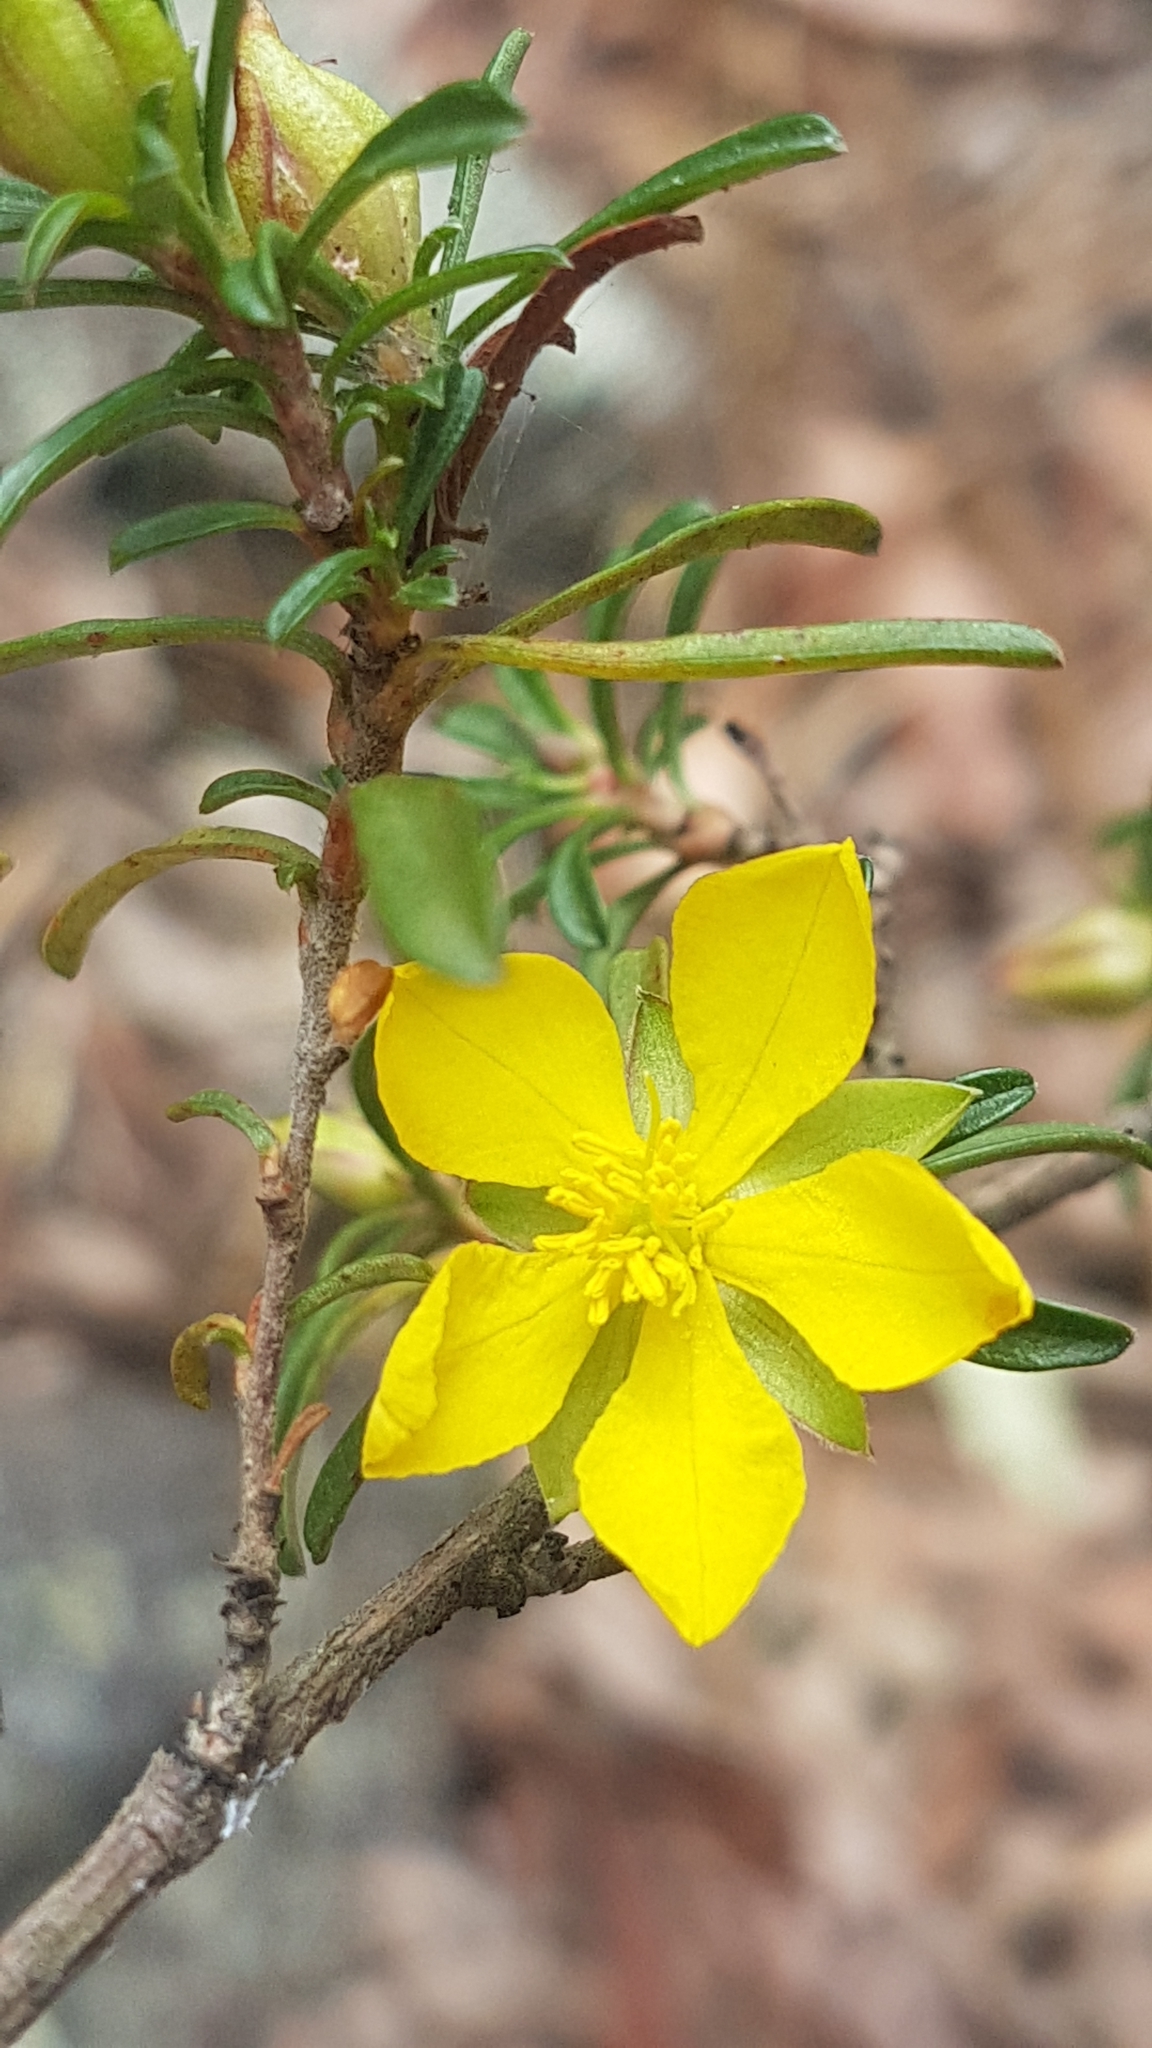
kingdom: Plantae
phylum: Tracheophyta
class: Magnoliopsida
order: Dilleniales
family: Dilleniaceae
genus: Hibbertia
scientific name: Hibbertia linearis
